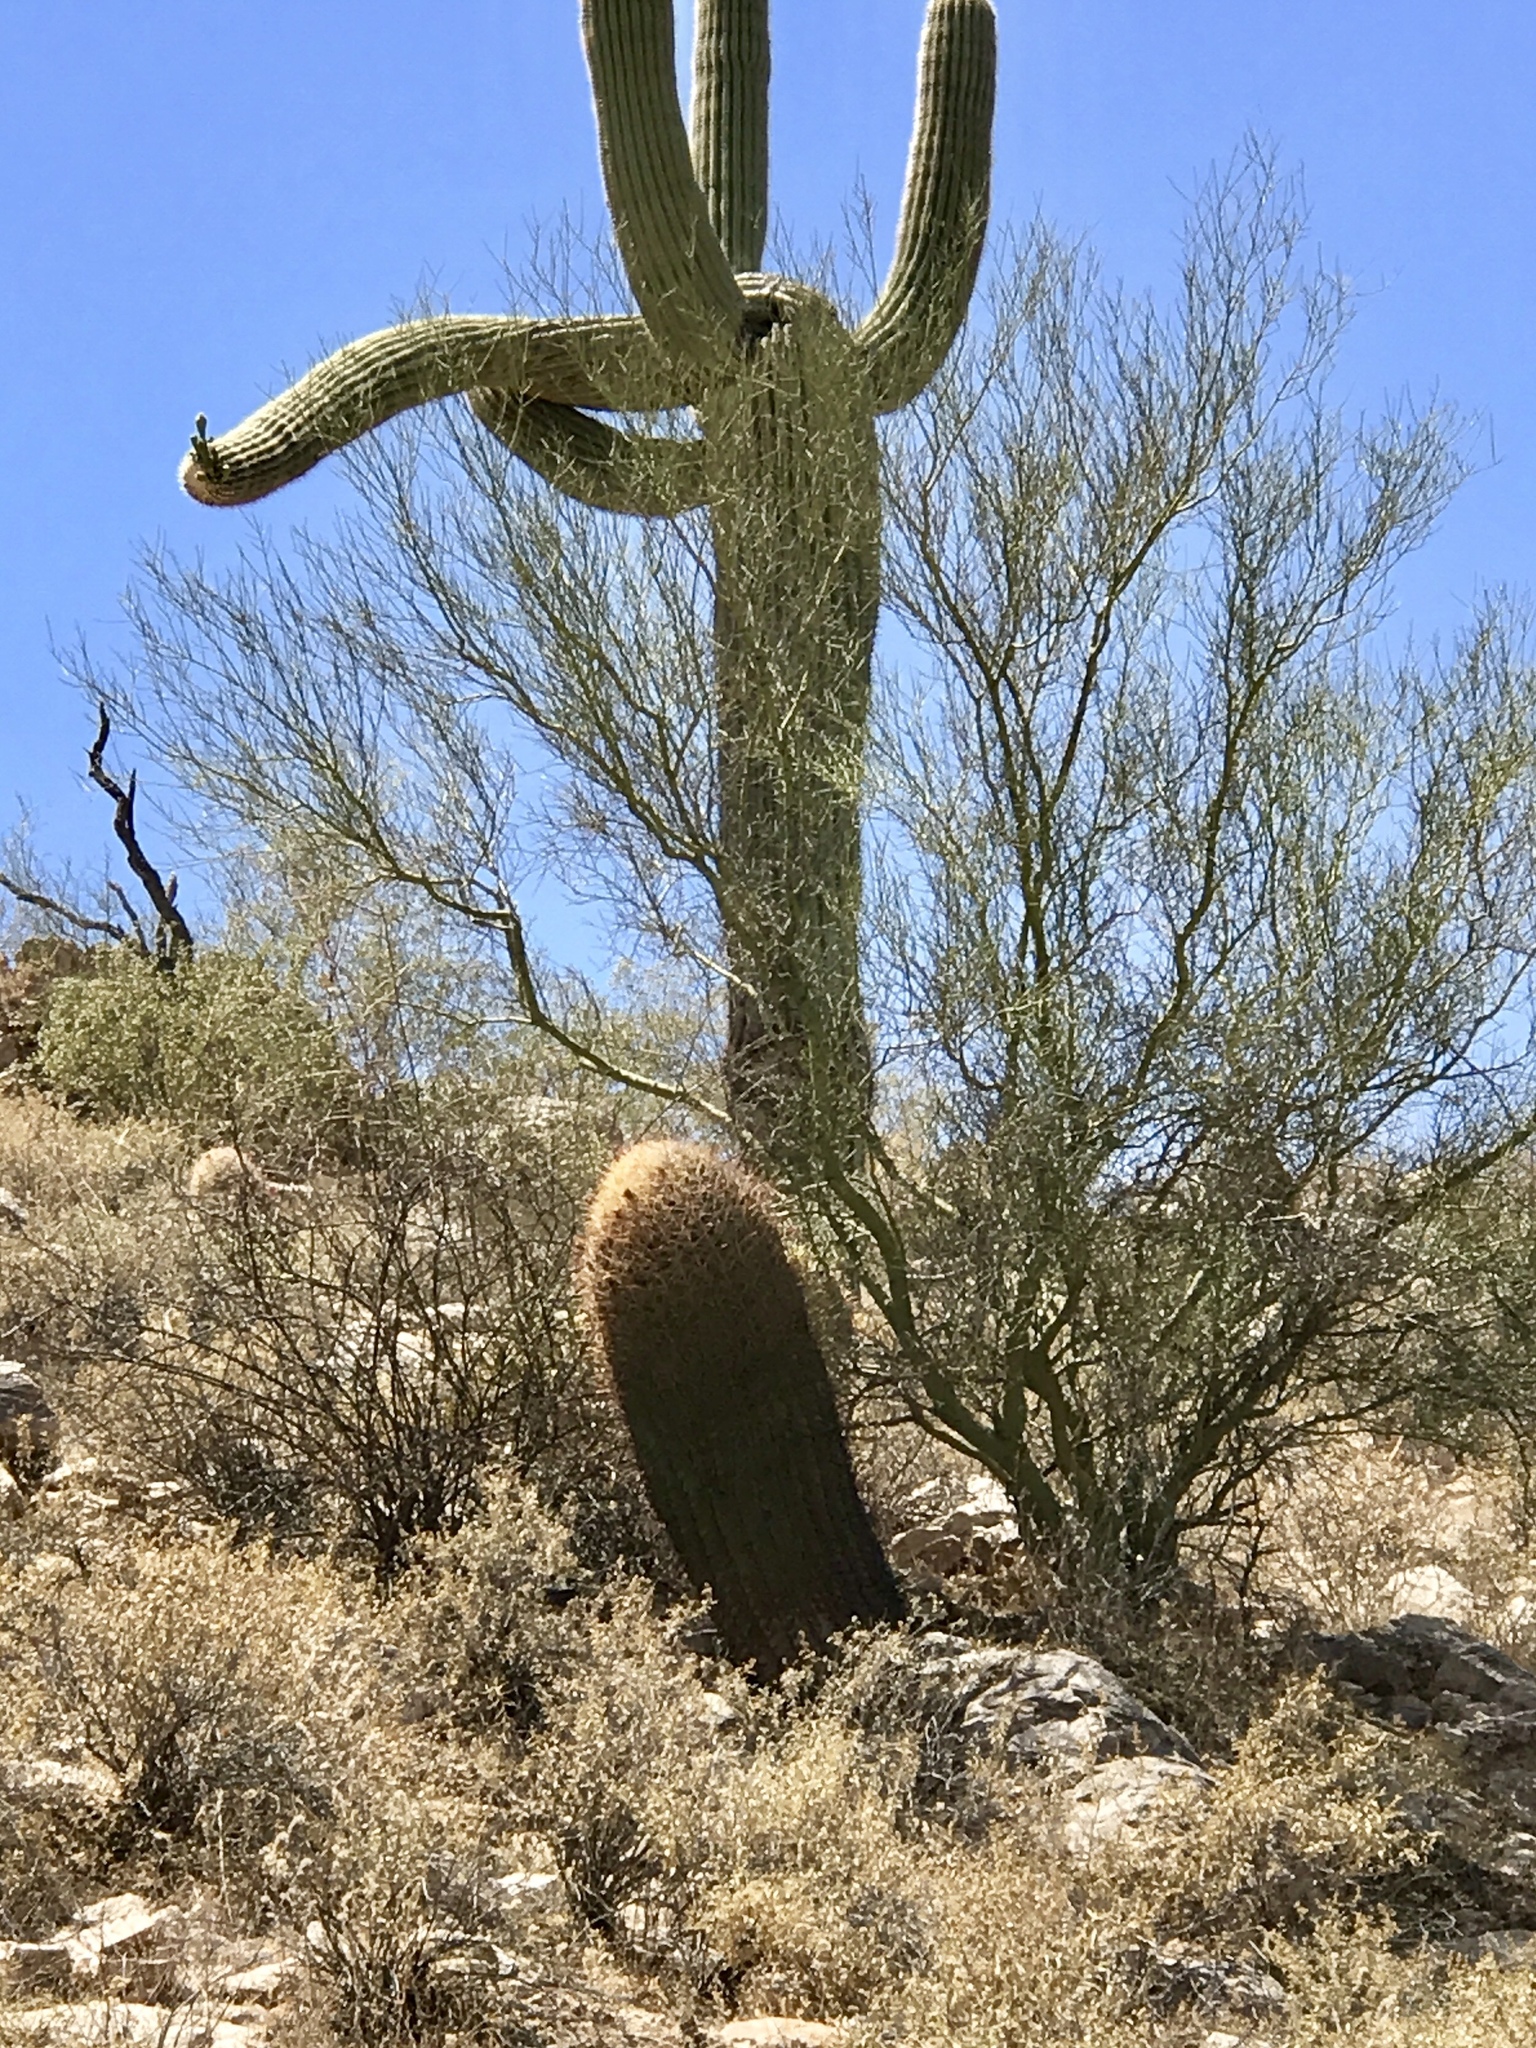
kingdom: Plantae
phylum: Tracheophyta
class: Magnoliopsida
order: Fabales
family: Fabaceae
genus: Parkinsonia
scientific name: Parkinsonia microphylla
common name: Yellow paloverde
